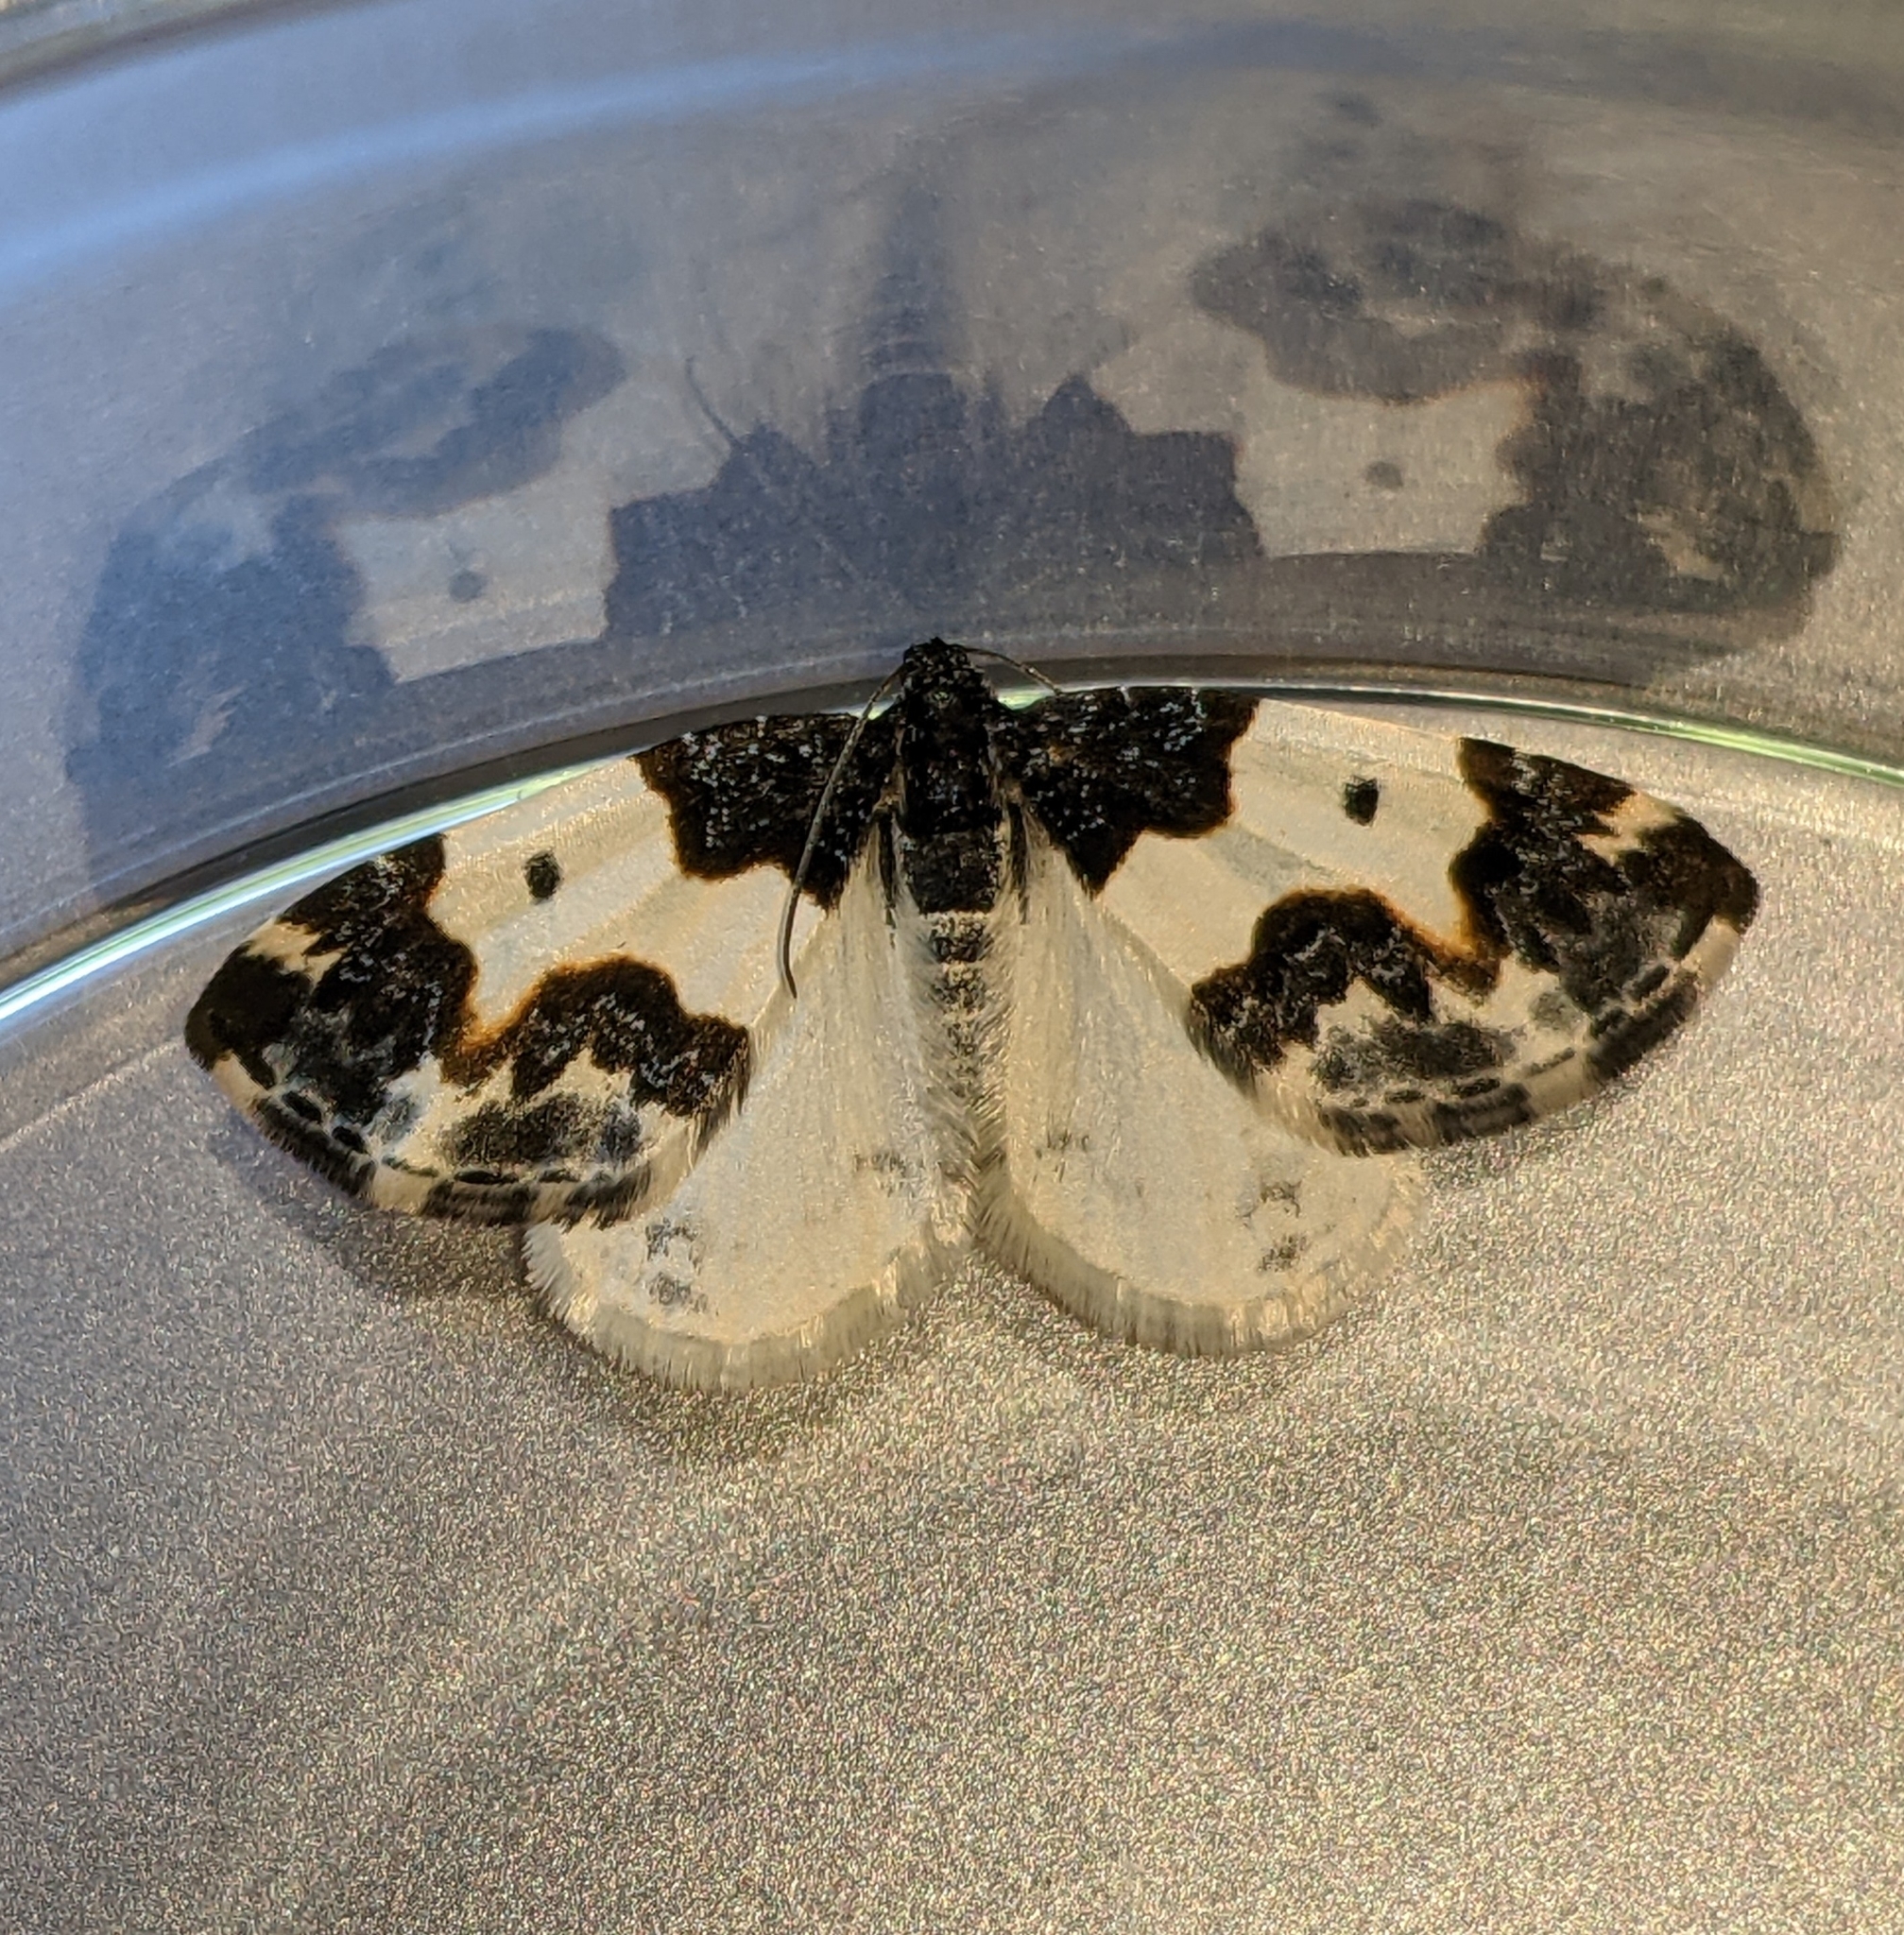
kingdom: Animalia
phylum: Arthropoda
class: Insecta
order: Lepidoptera
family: Geometridae
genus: Mesoleuca
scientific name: Mesoleuca gratulata
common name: Half-white carpet moth
